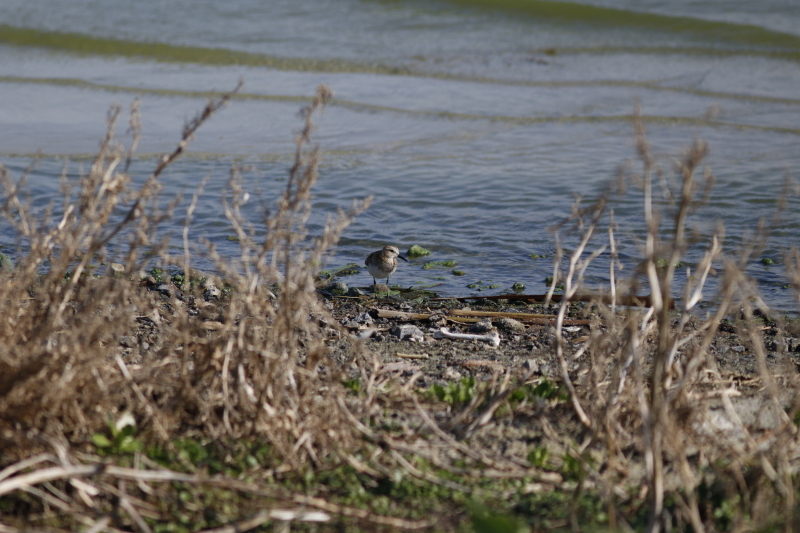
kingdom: Animalia
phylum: Chordata
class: Aves
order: Charadriiformes
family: Scolopacidae
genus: Calidris
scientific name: Calidris minuta
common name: Little stint
